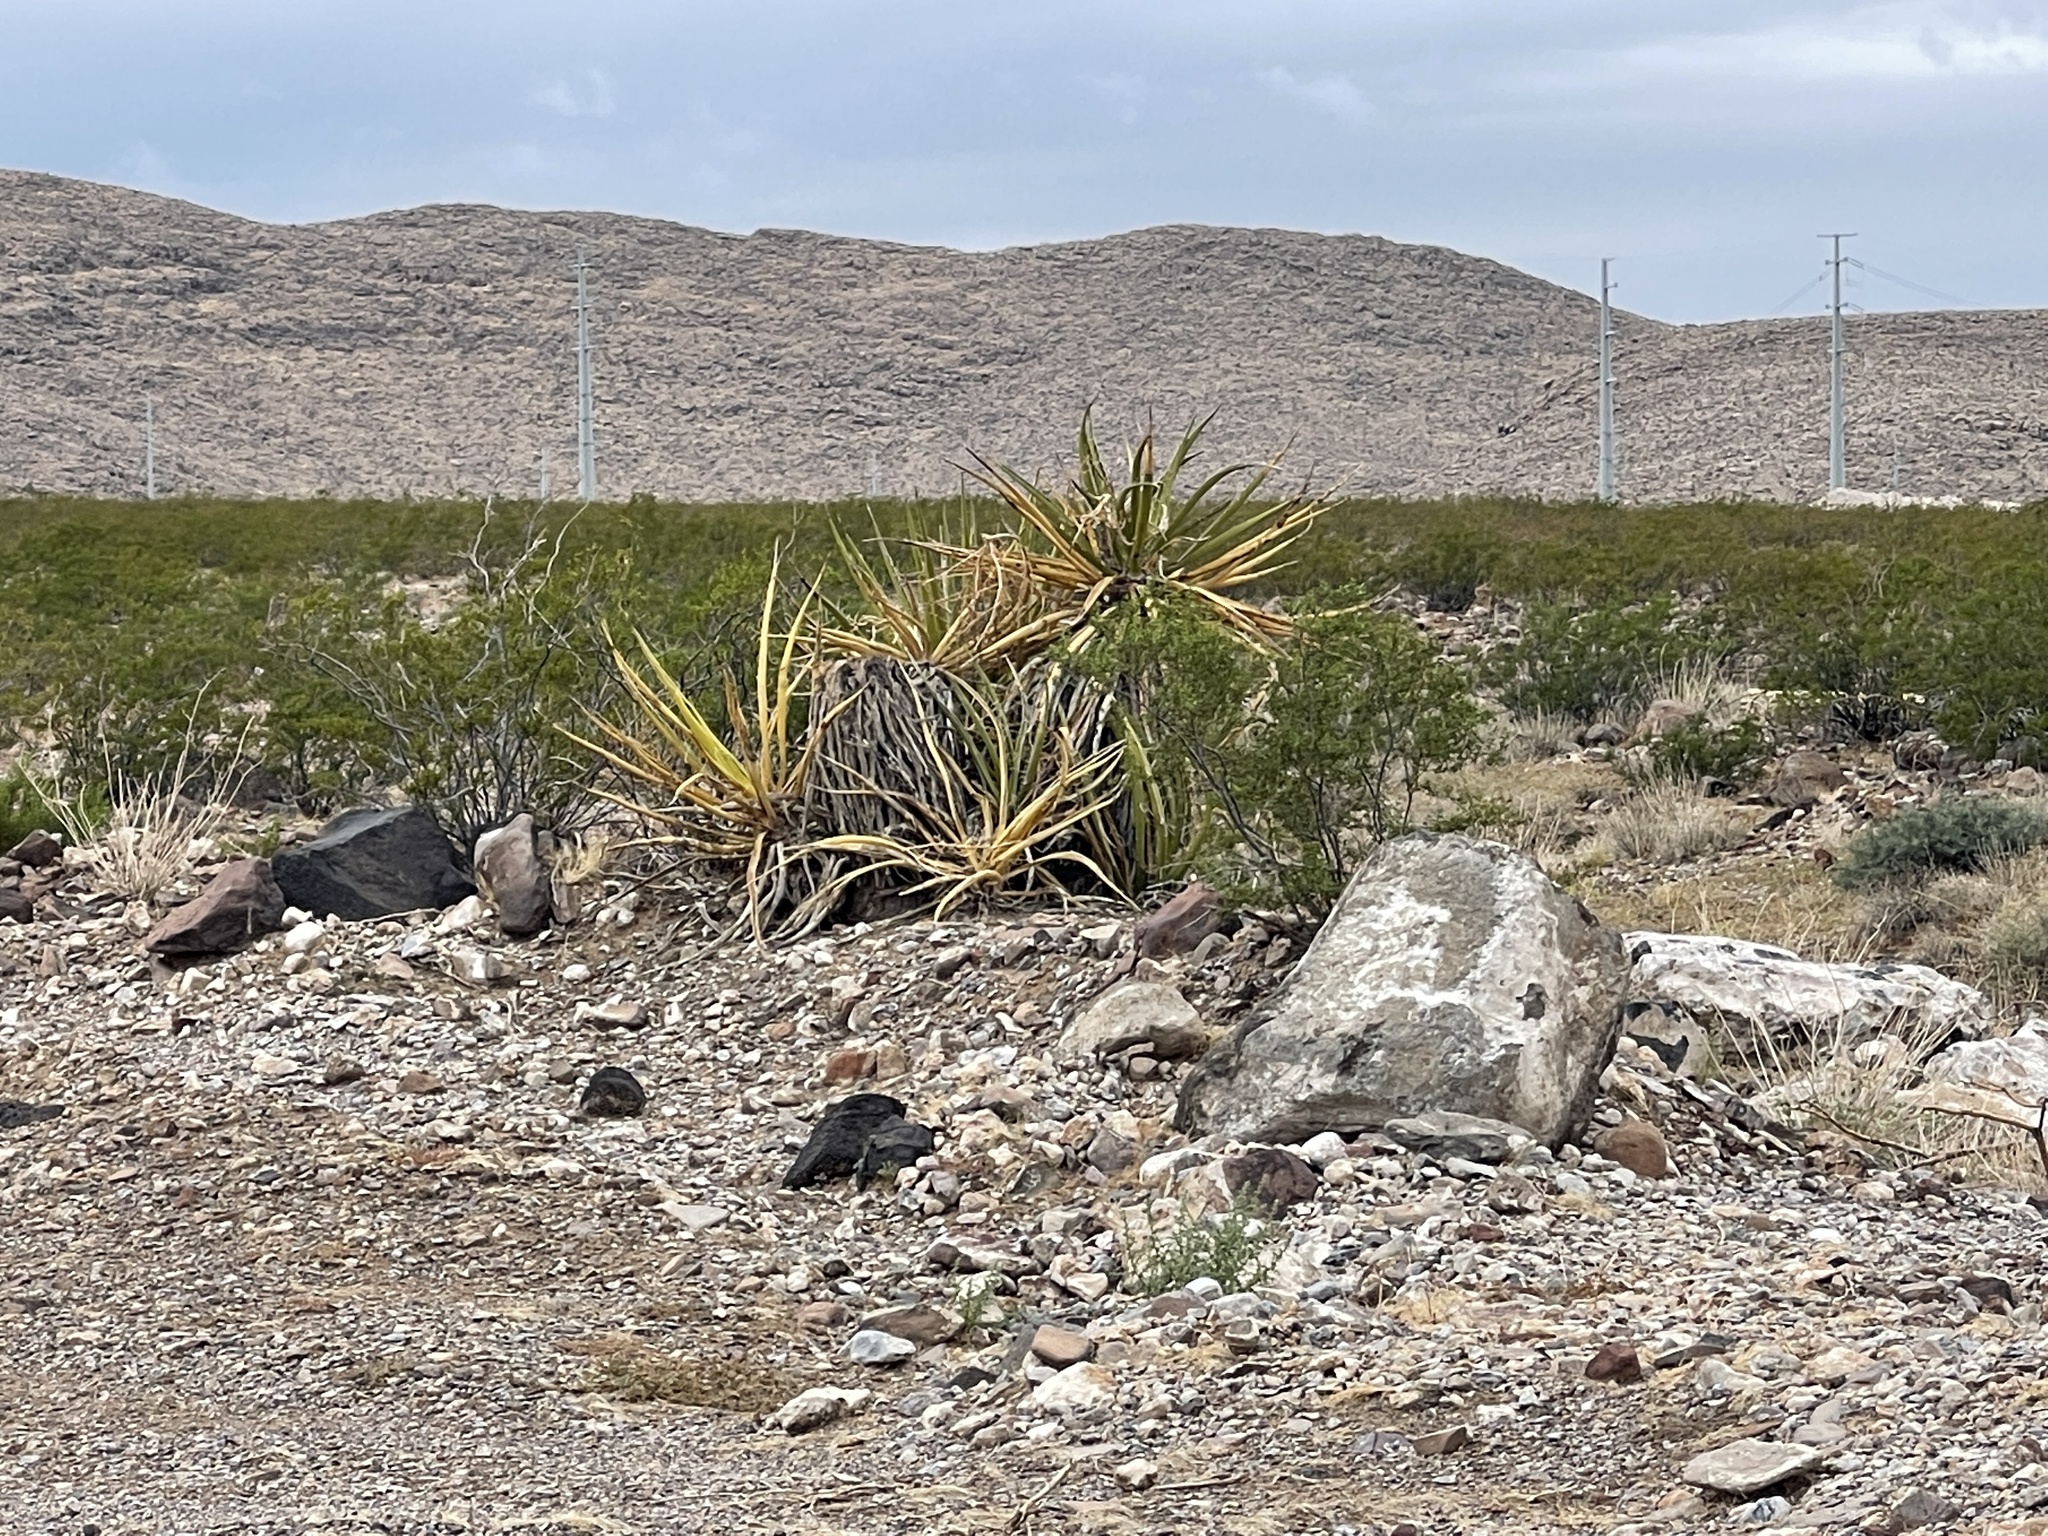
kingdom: Plantae
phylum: Tracheophyta
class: Liliopsida
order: Asparagales
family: Asparagaceae
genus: Yucca
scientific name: Yucca schidigera
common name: Mojave yucca
